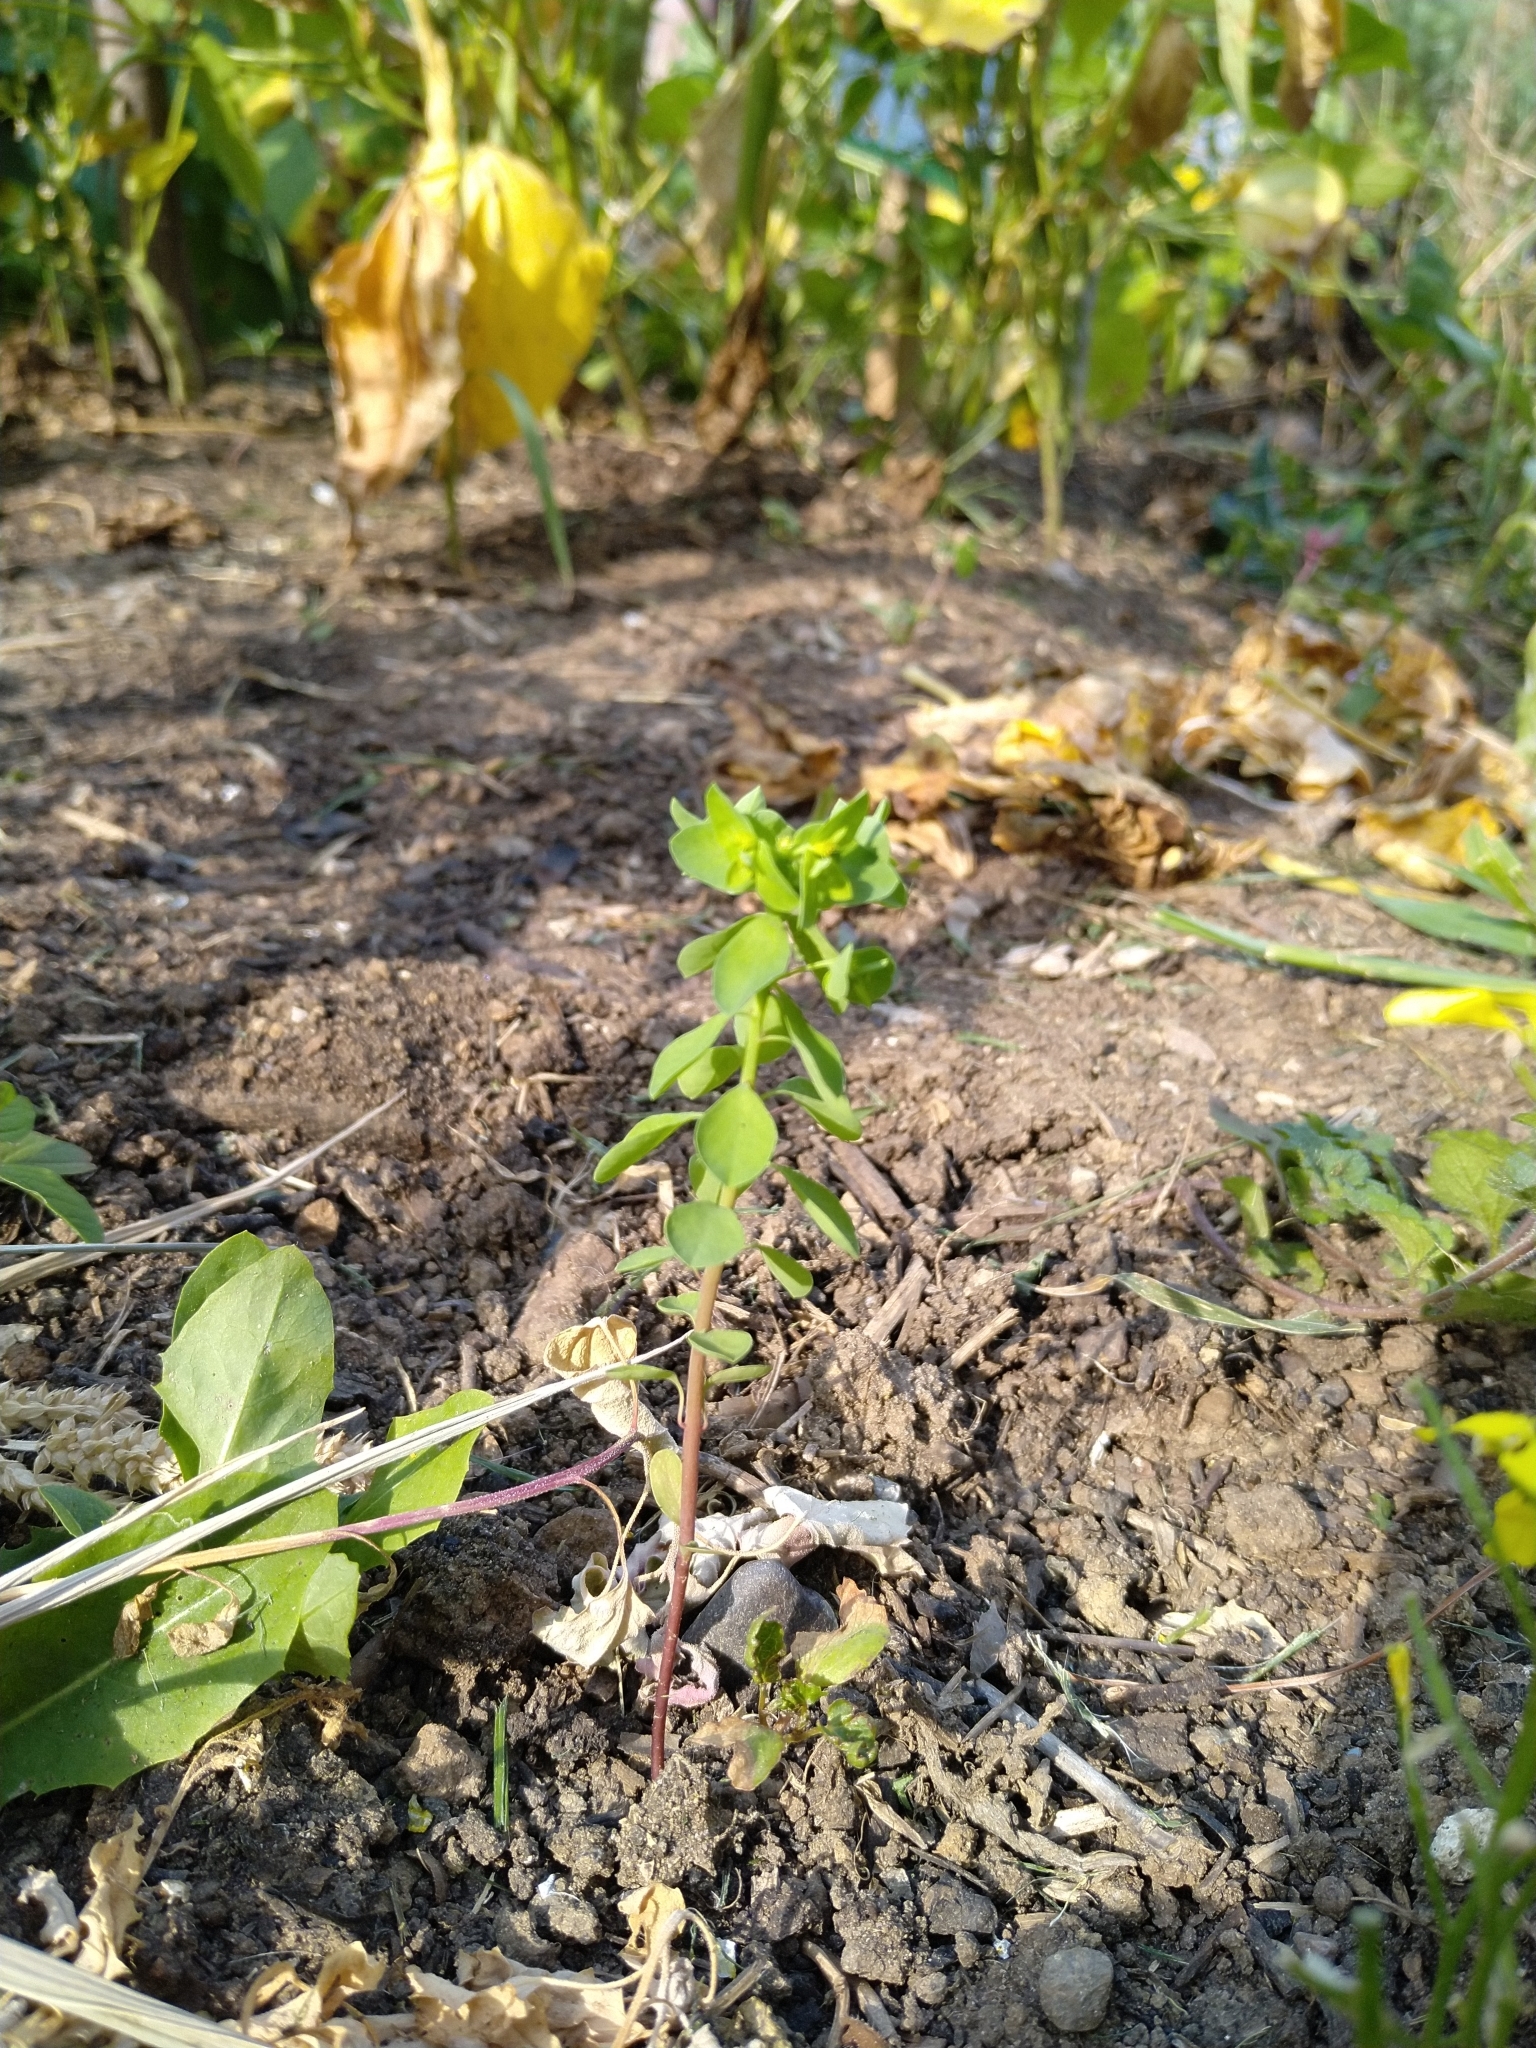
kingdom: Plantae
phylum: Tracheophyta
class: Magnoliopsida
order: Malpighiales
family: Euphorbiaceae
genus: Euphorbia
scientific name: Euphorbia peplus
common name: Petty spurge
